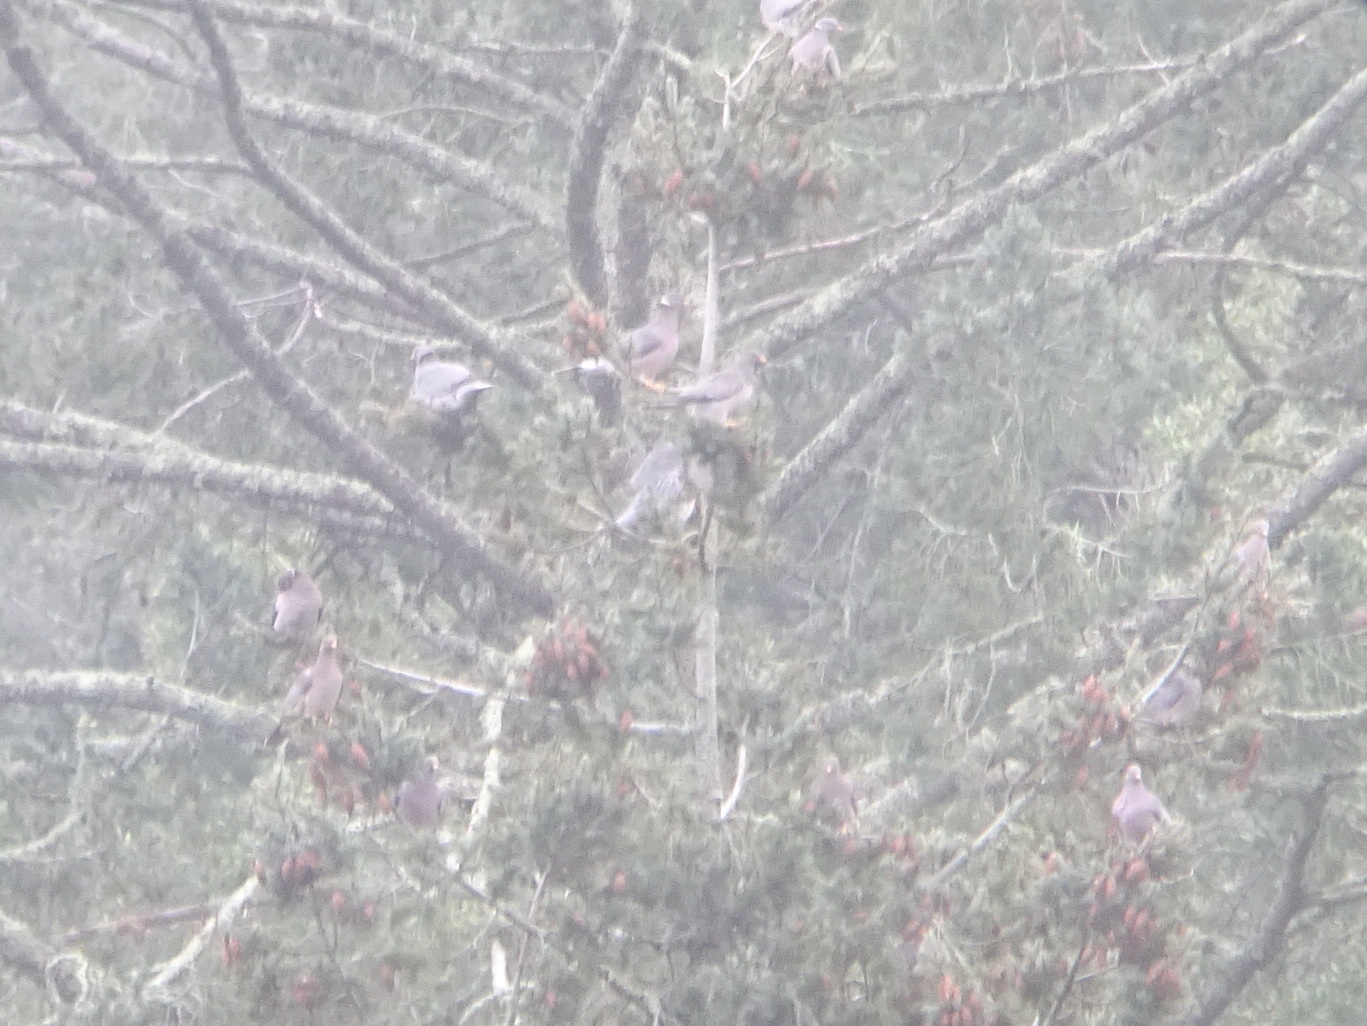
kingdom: Animalia
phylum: Chordata
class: Aves
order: Columbiformes
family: Columbidae
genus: Patagioenas
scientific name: Patagioenas fasciata
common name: Band-tailed pigeon
